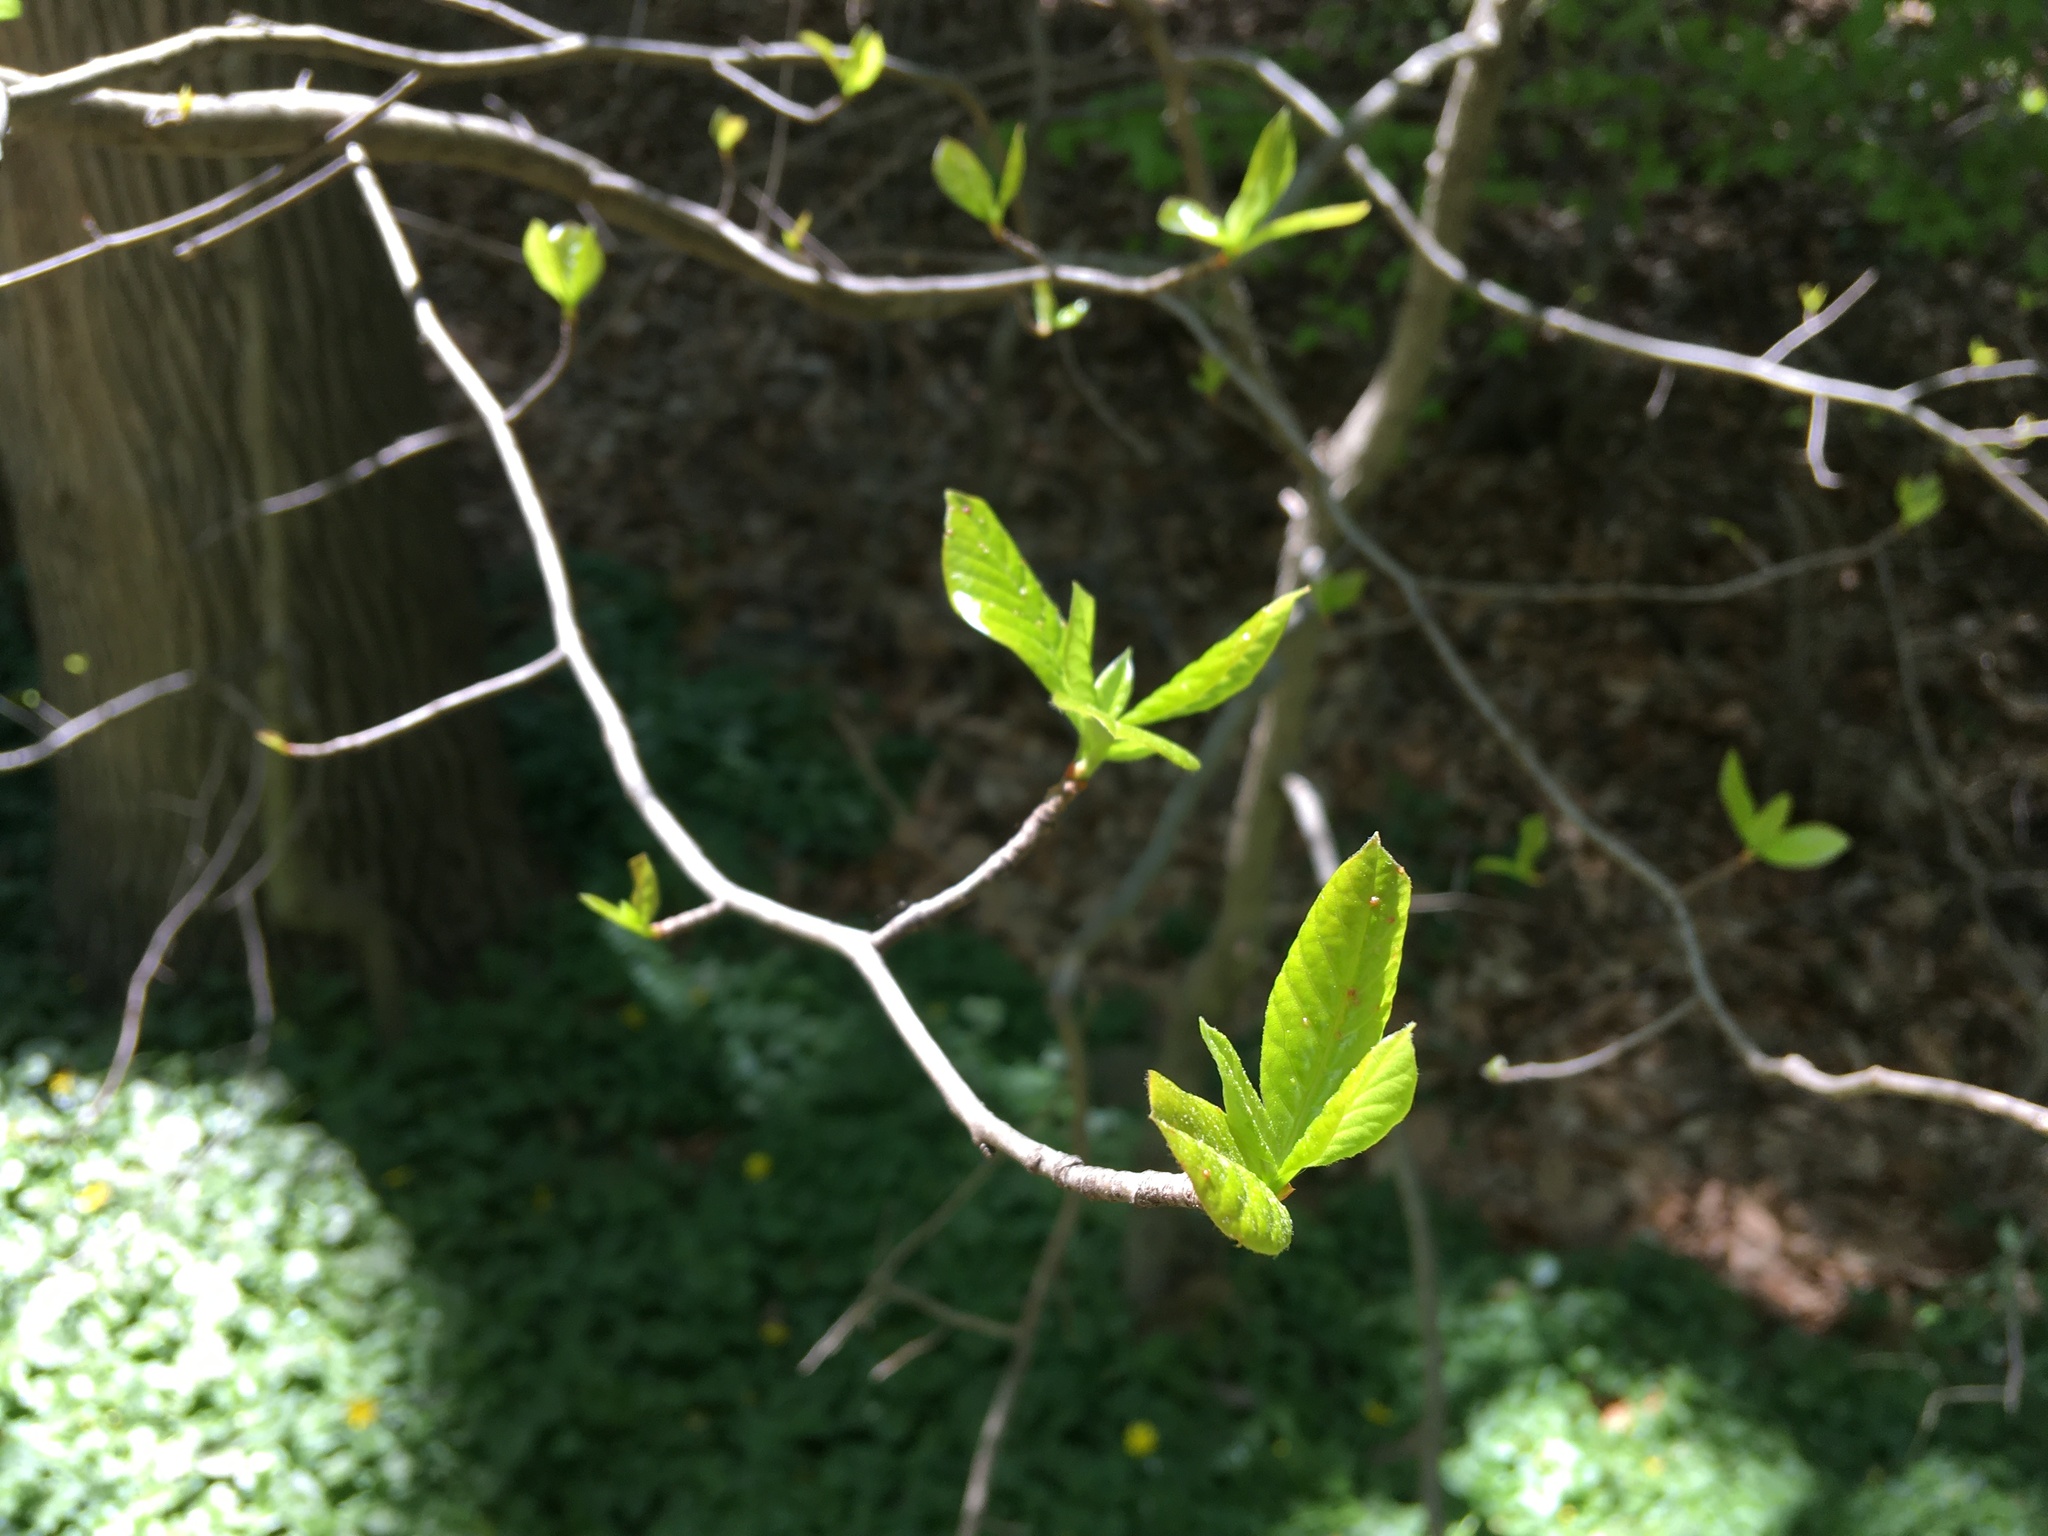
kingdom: Plantae
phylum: Tracheophyta
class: Magnoliopsida
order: Cornales
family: Nyssaceae
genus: Nyssa
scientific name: Nyssa sylvatica
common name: Black tupelo
